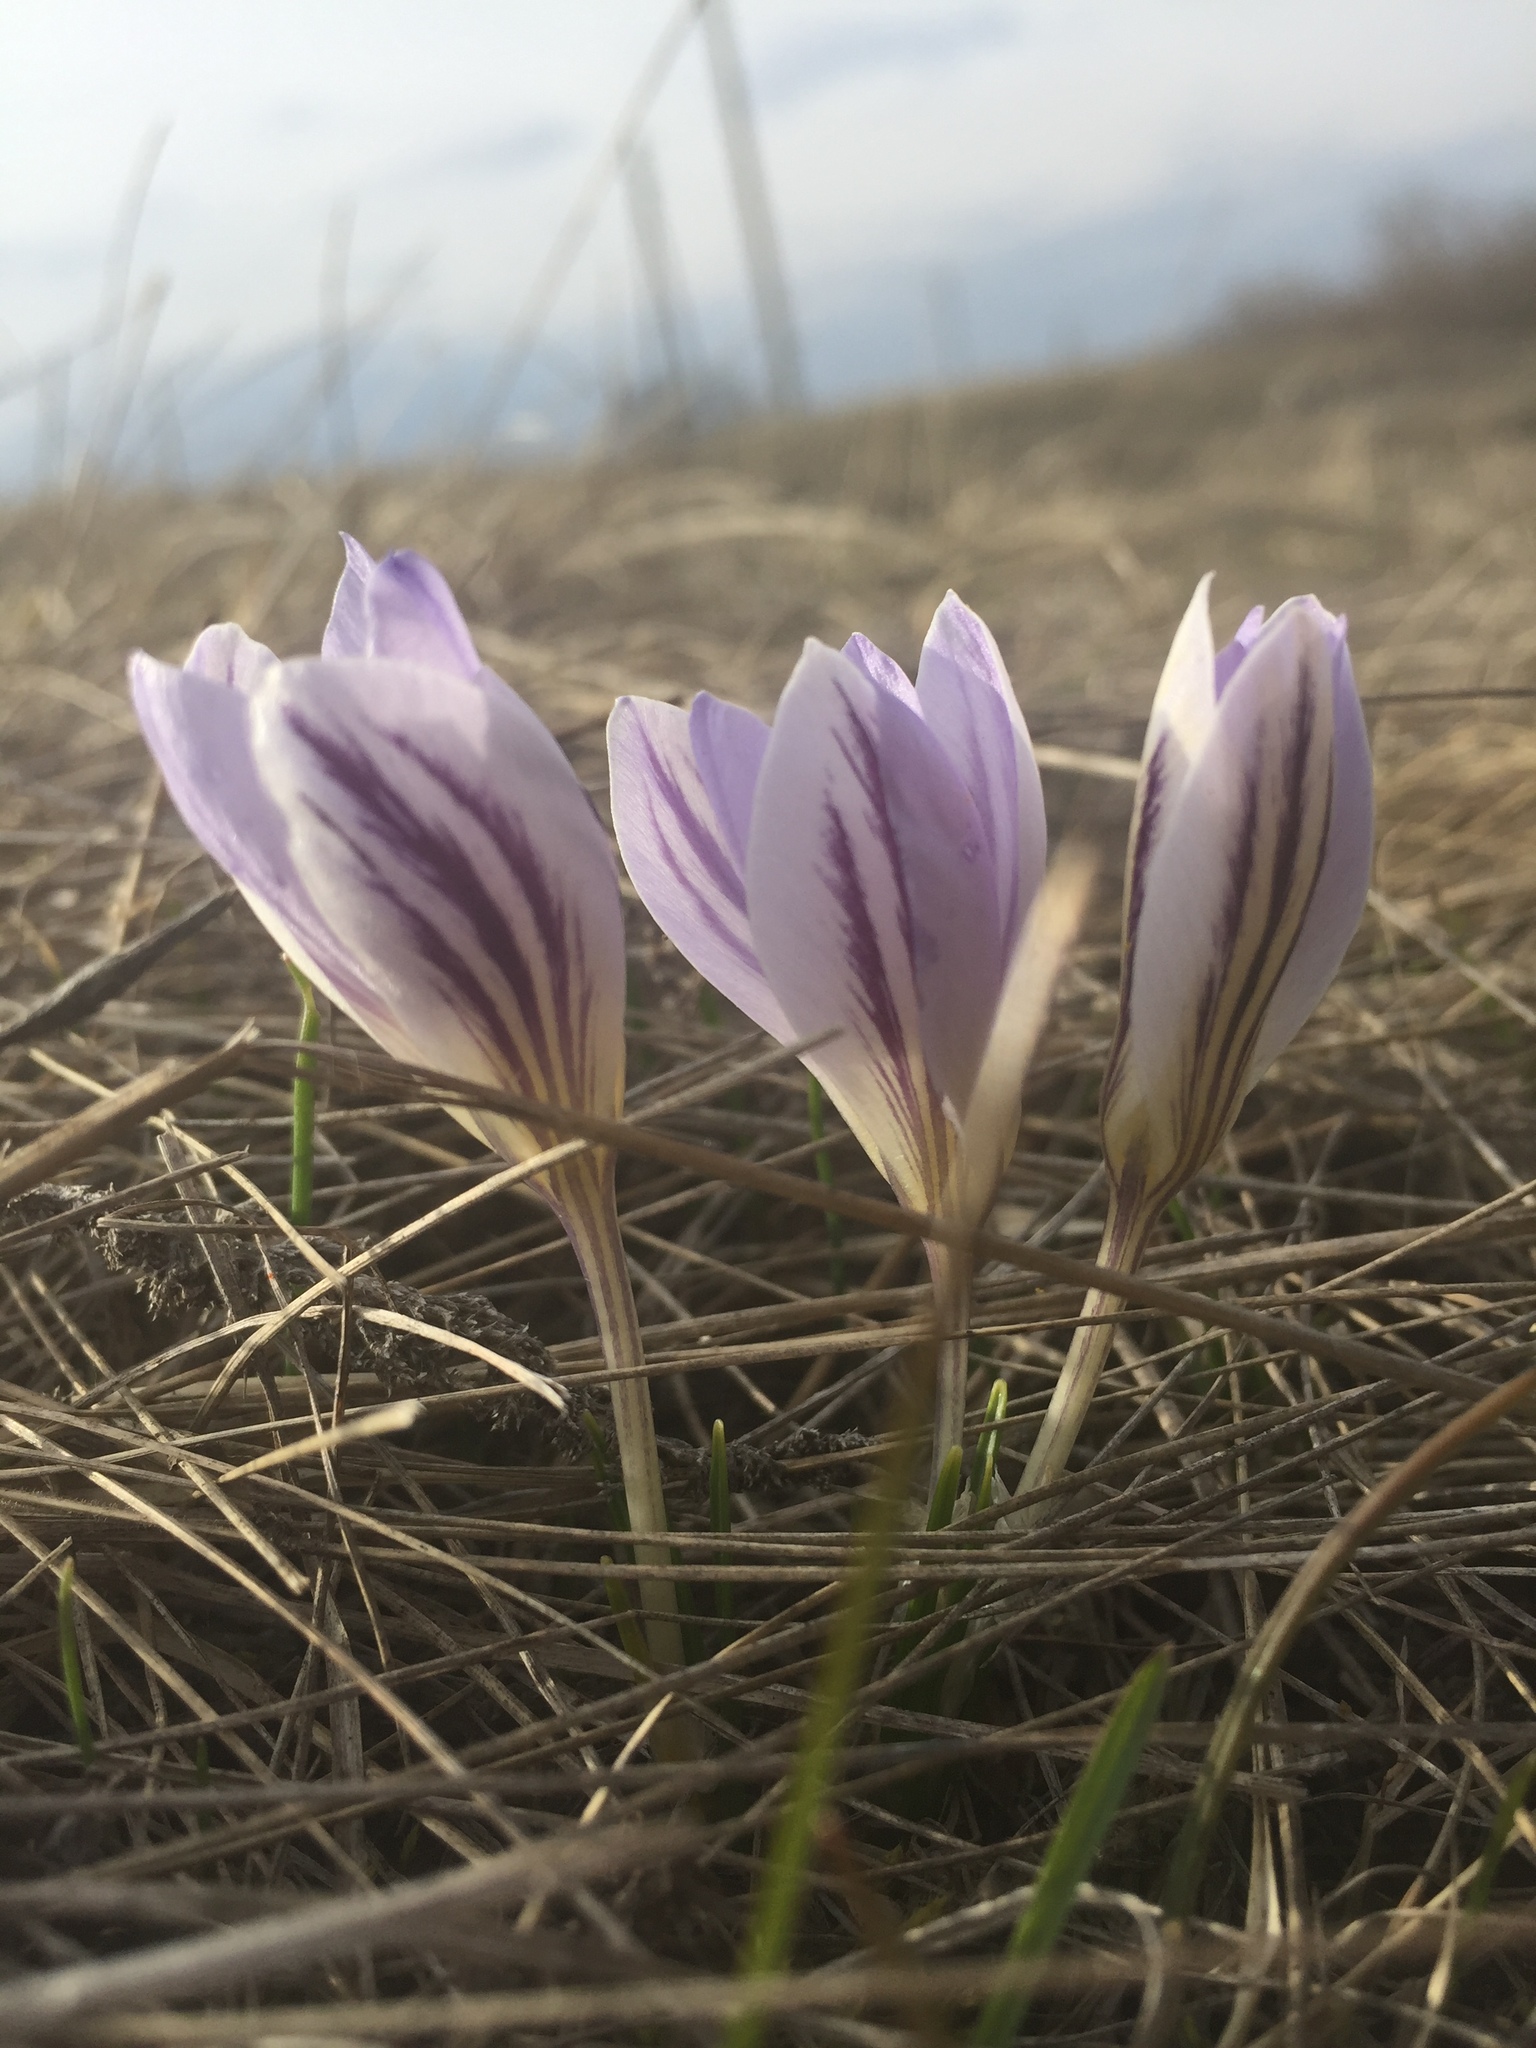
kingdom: Plantae
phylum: Tracheophyta
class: Liliopsida
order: Asparagales
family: Iridaceae
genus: Crocus
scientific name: Crocus reticulatus
